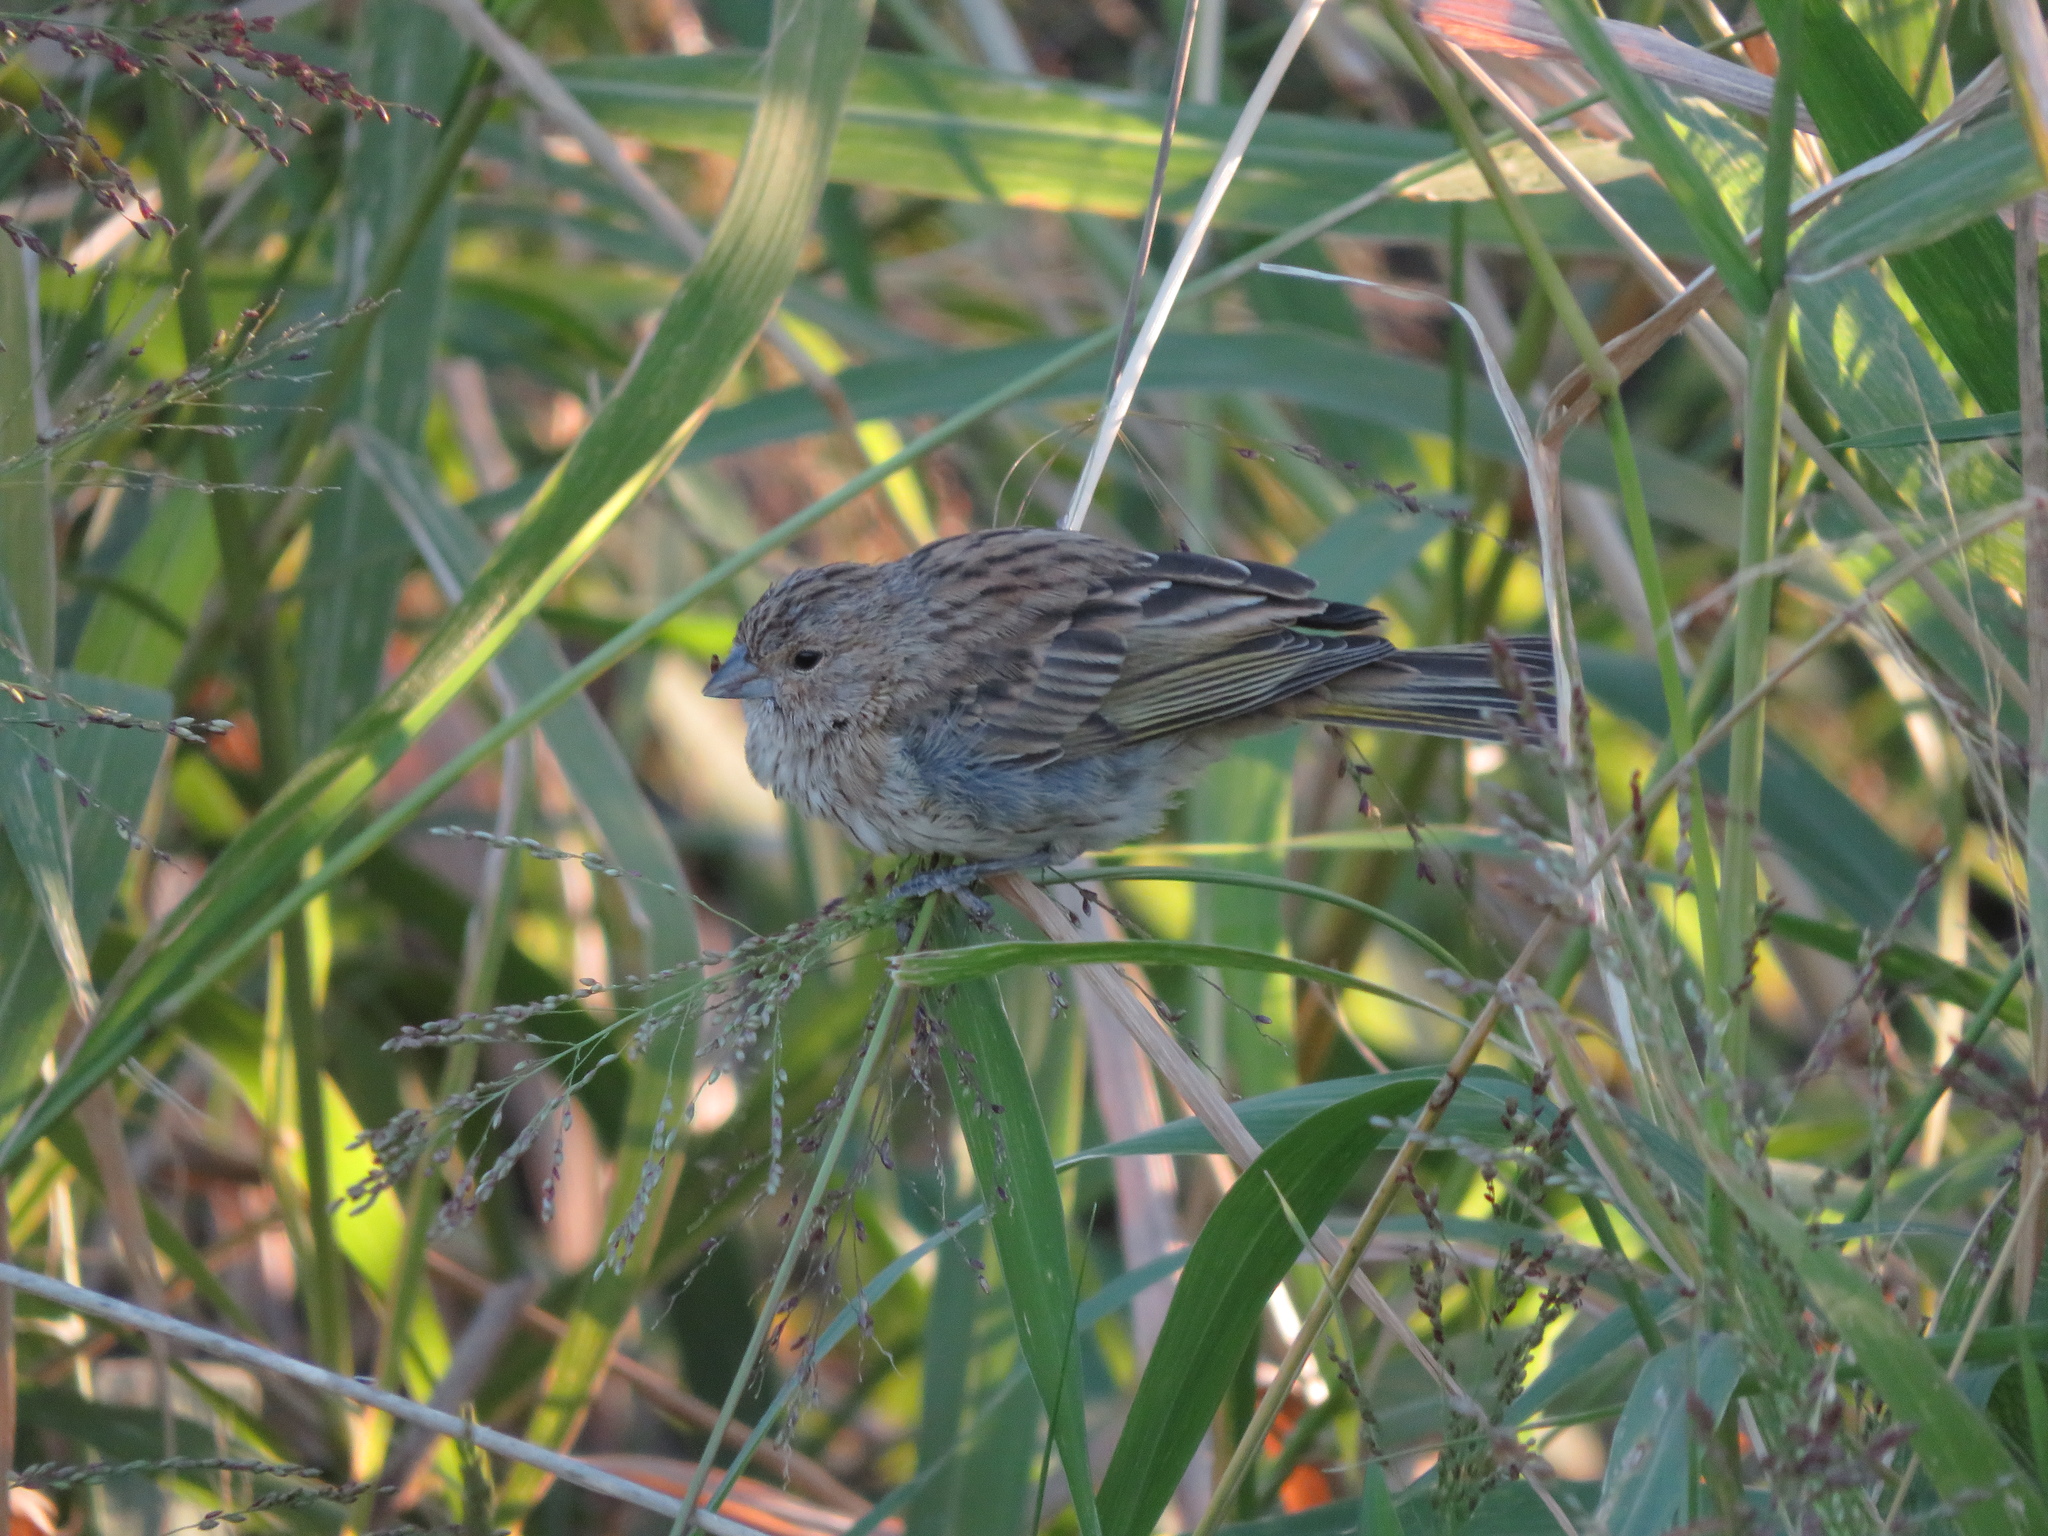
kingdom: Animalia
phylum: Chordata
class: Aves
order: Passeriformes
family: Thraupidae
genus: Sicalis
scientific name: Sicalis flaveola
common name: Saffron finch
